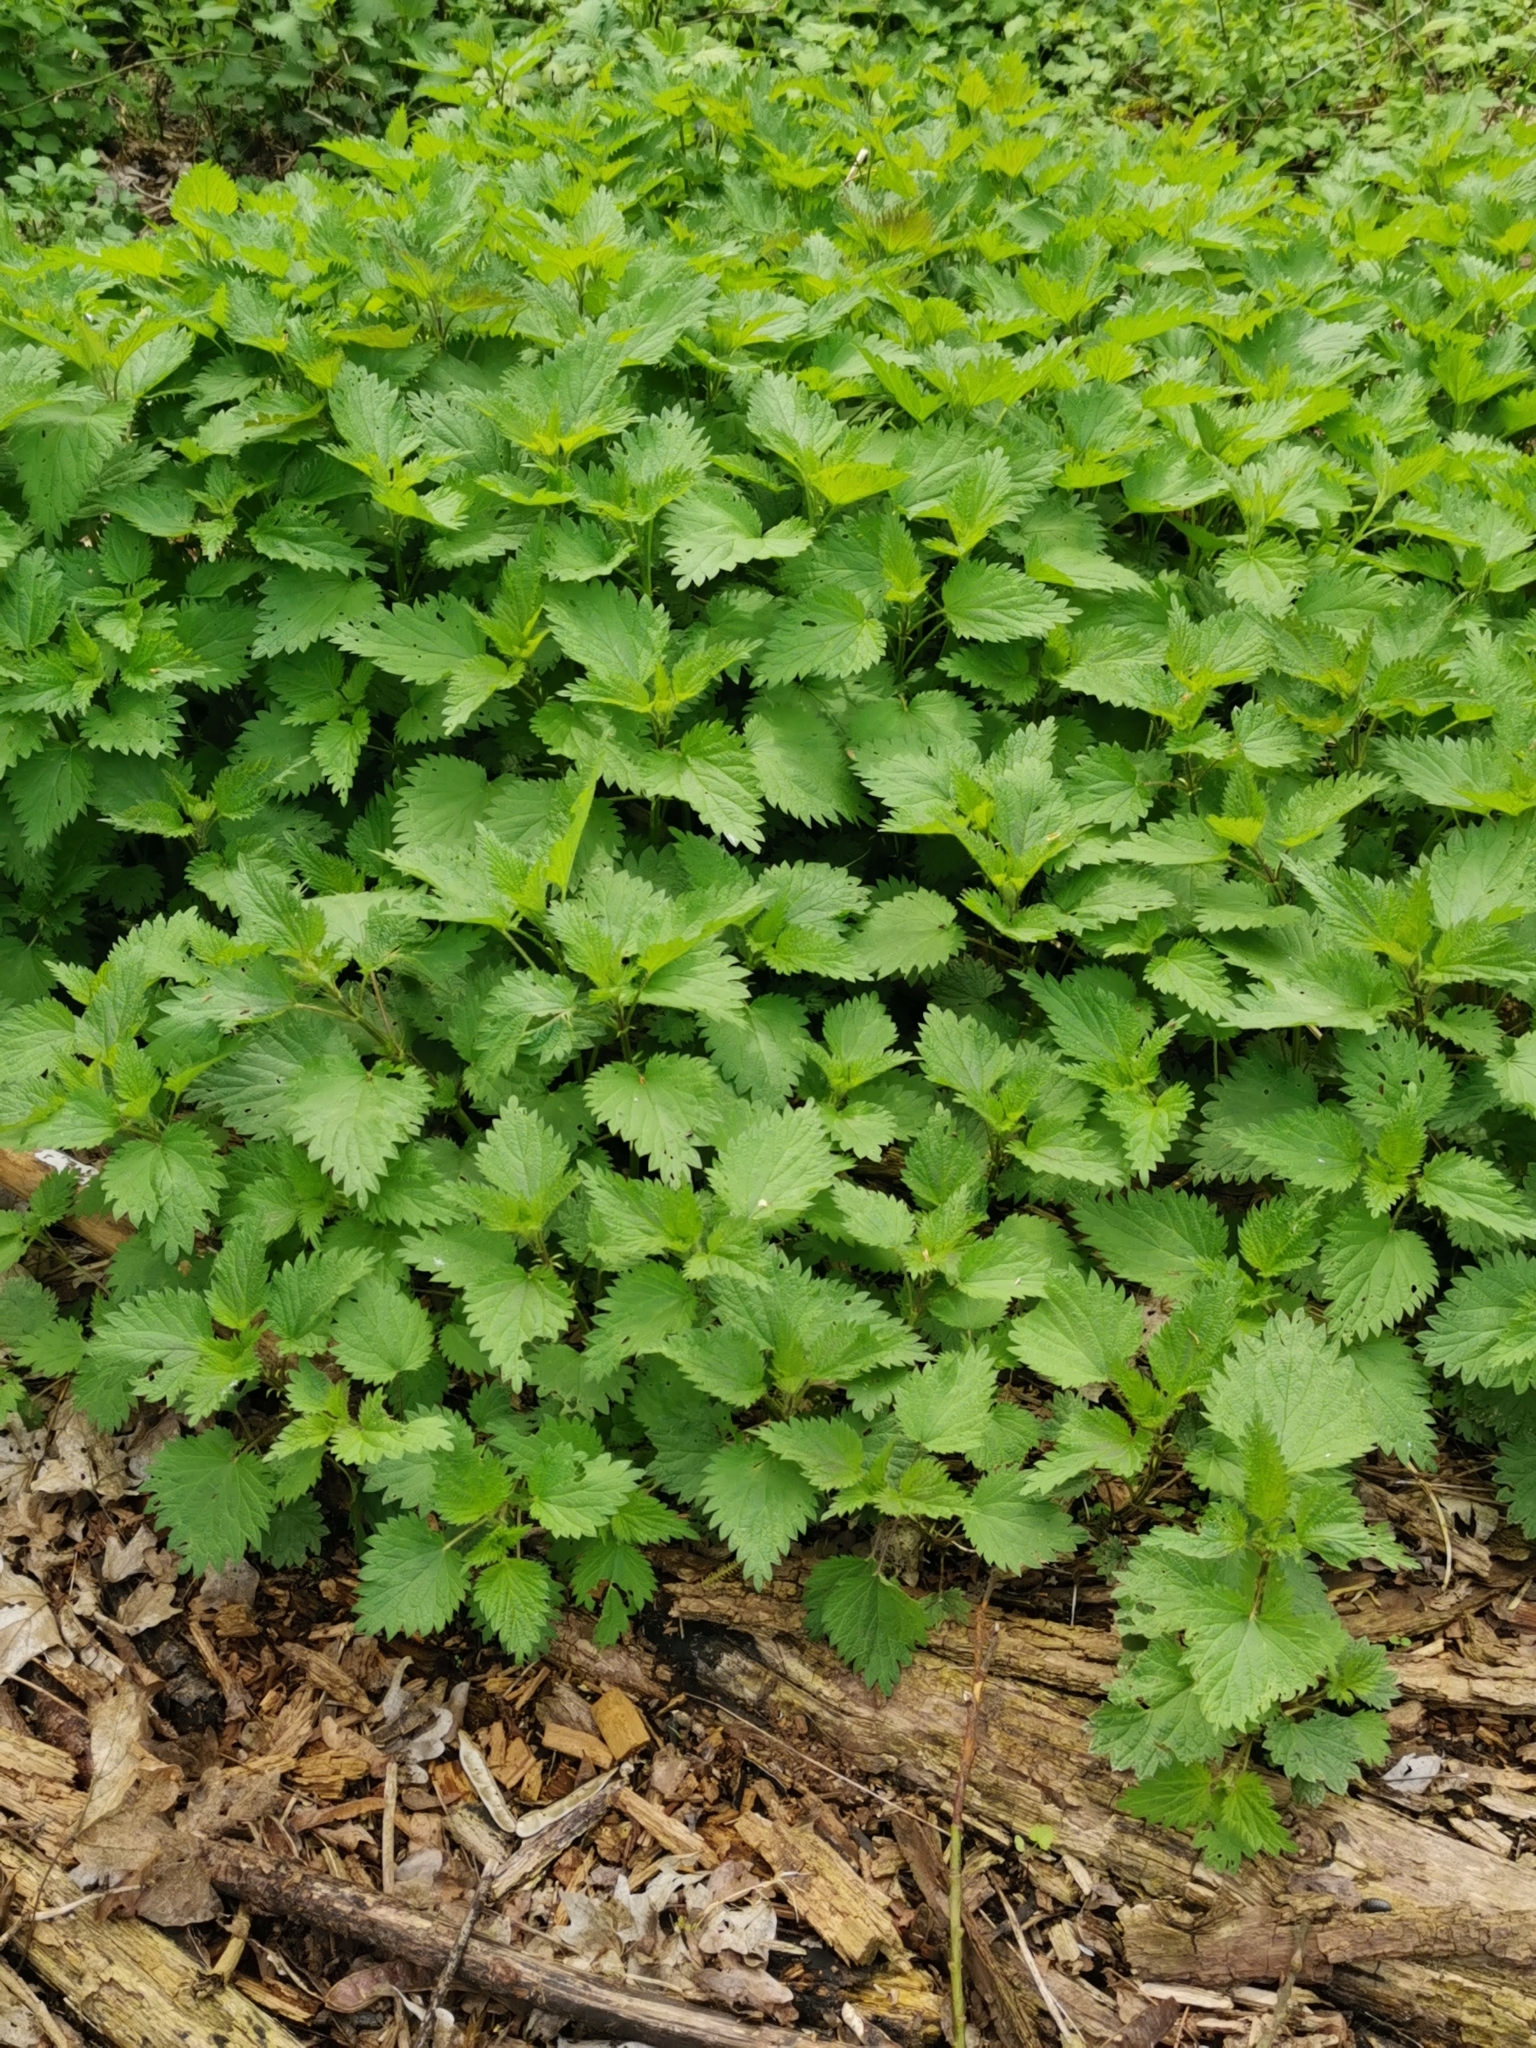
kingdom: Plantae
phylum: Tracheophyta
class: Magnoliopsida
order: Rosales
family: Urticaceae
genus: Urtica
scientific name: Urtica dioica
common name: Common nettle
